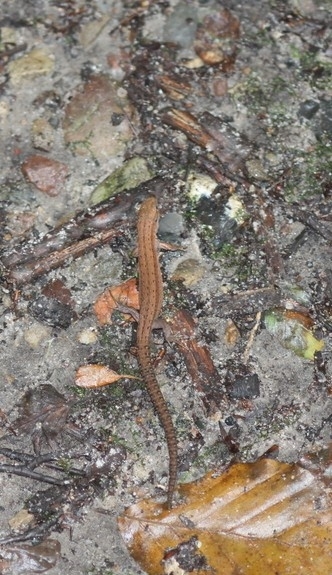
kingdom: Animalia
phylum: Chordata
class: Squamata
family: Lacertidae
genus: Zootoca
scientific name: Zootoca vivipara
